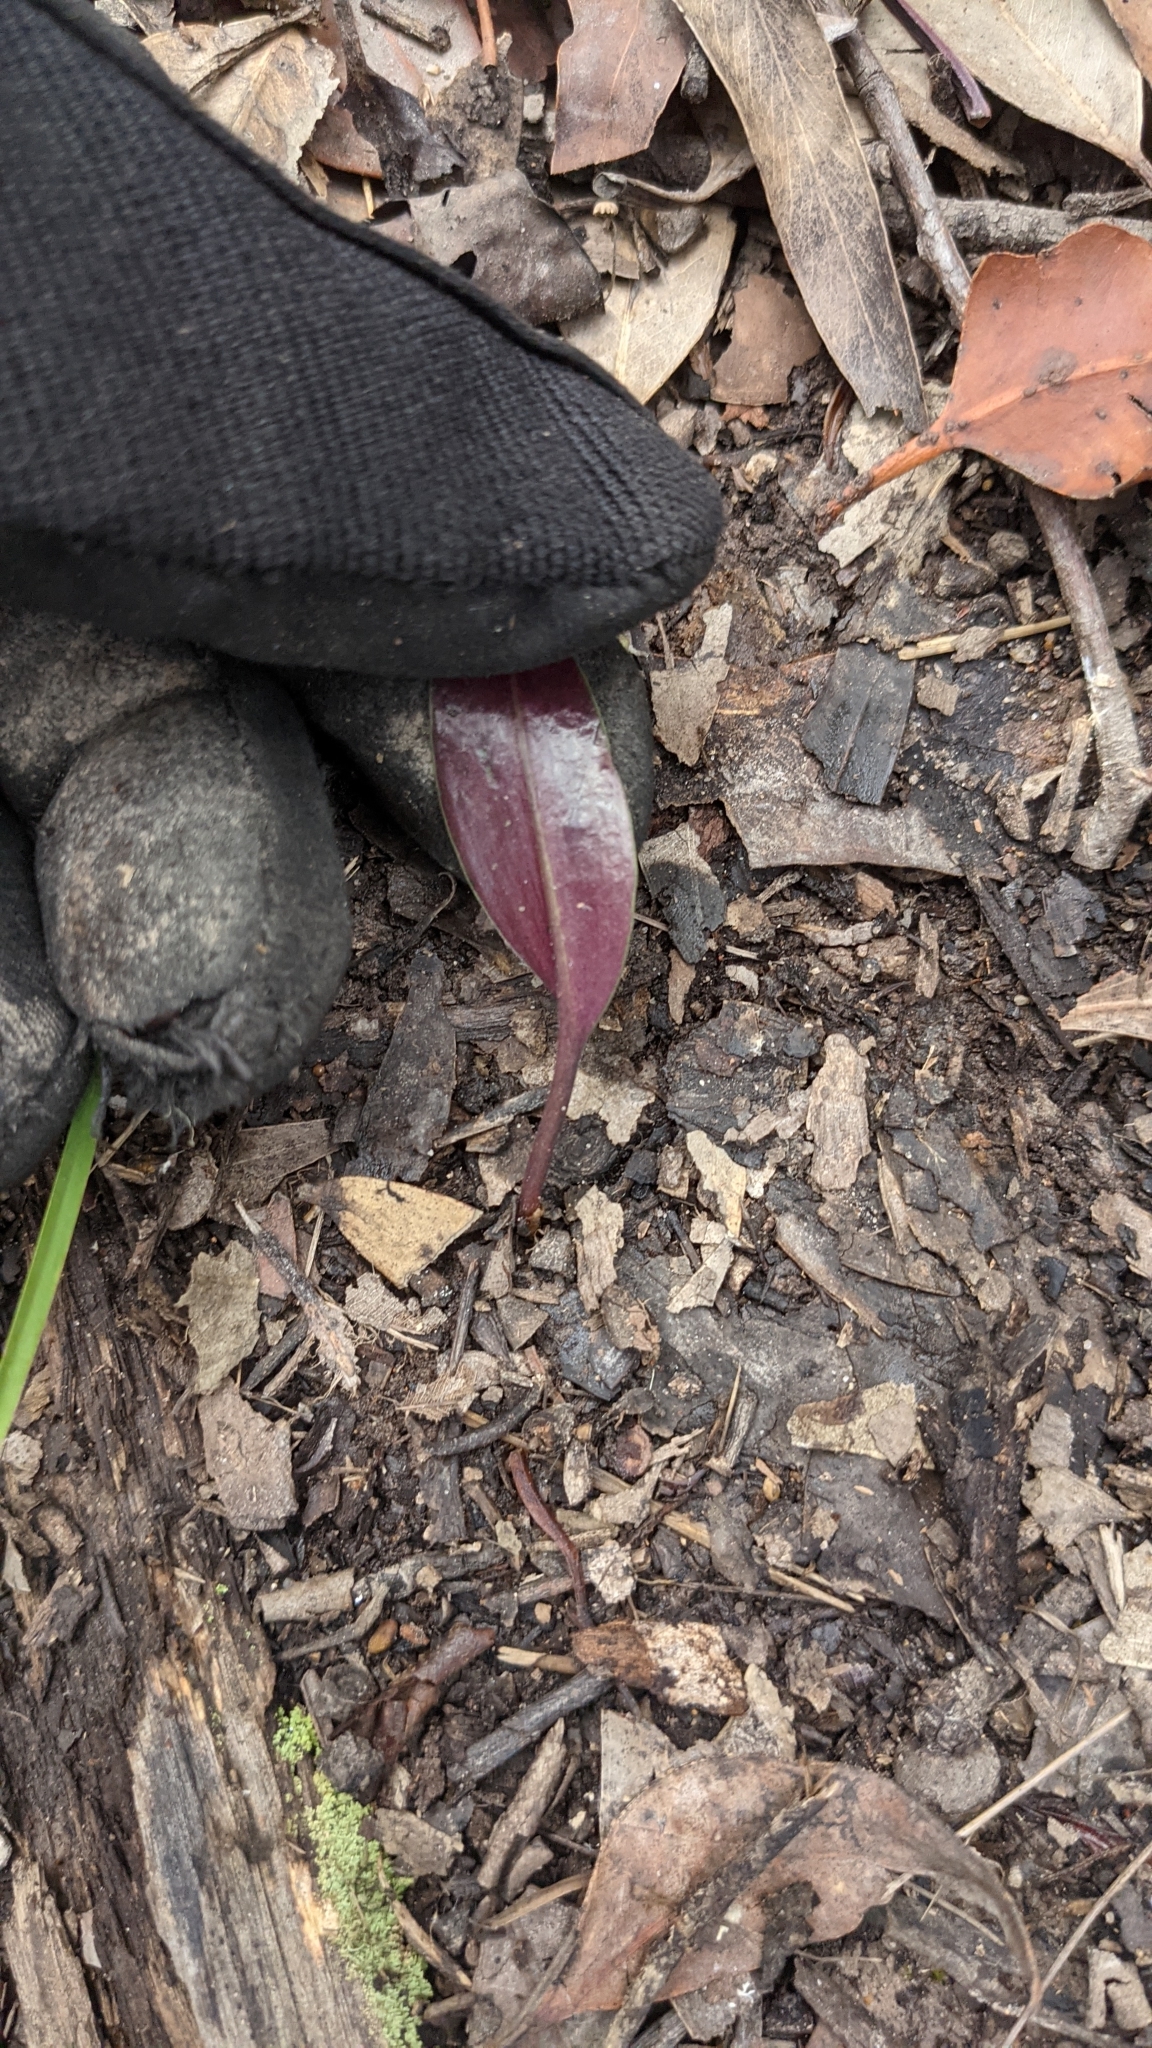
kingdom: Plantae
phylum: Tracheophyta
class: Liliopsida
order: Asparagales
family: Orchidaceae
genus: Cryptostylis
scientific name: Cryptostylis erecta
